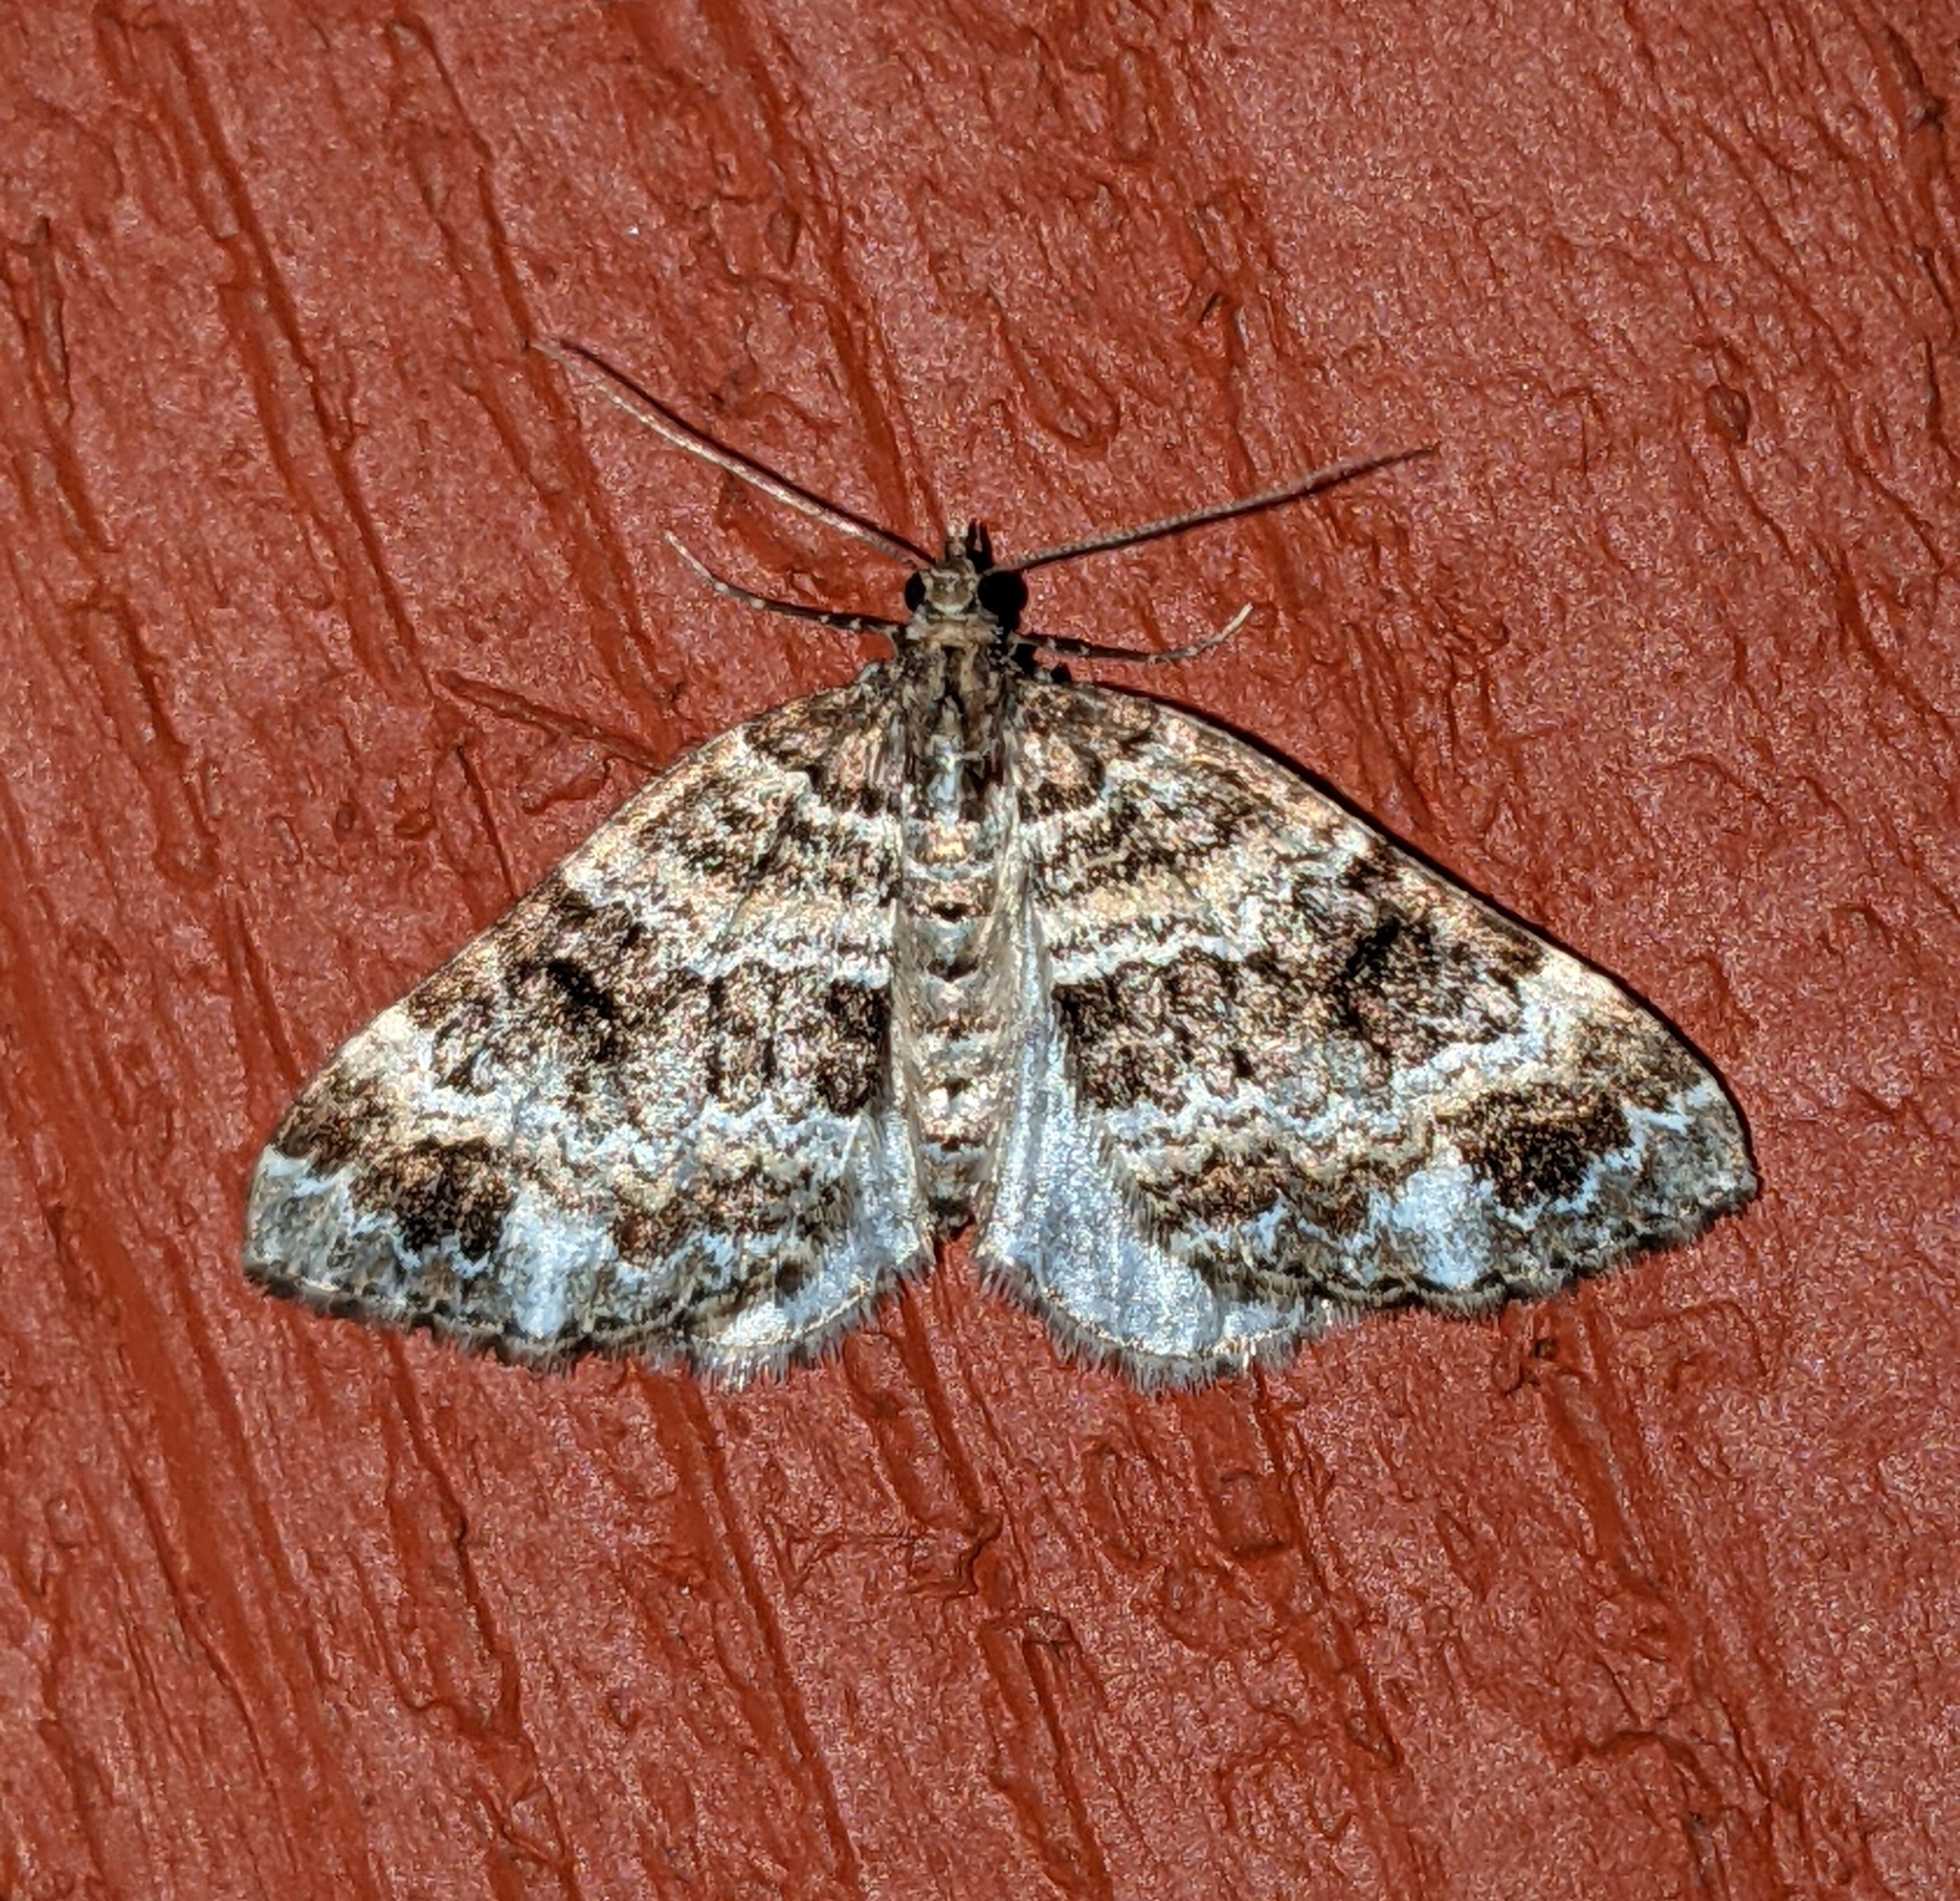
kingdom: Animalia
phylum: Arthropoda
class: Insecta
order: Lepidoptera
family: Geometridae
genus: Martania
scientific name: Martania
